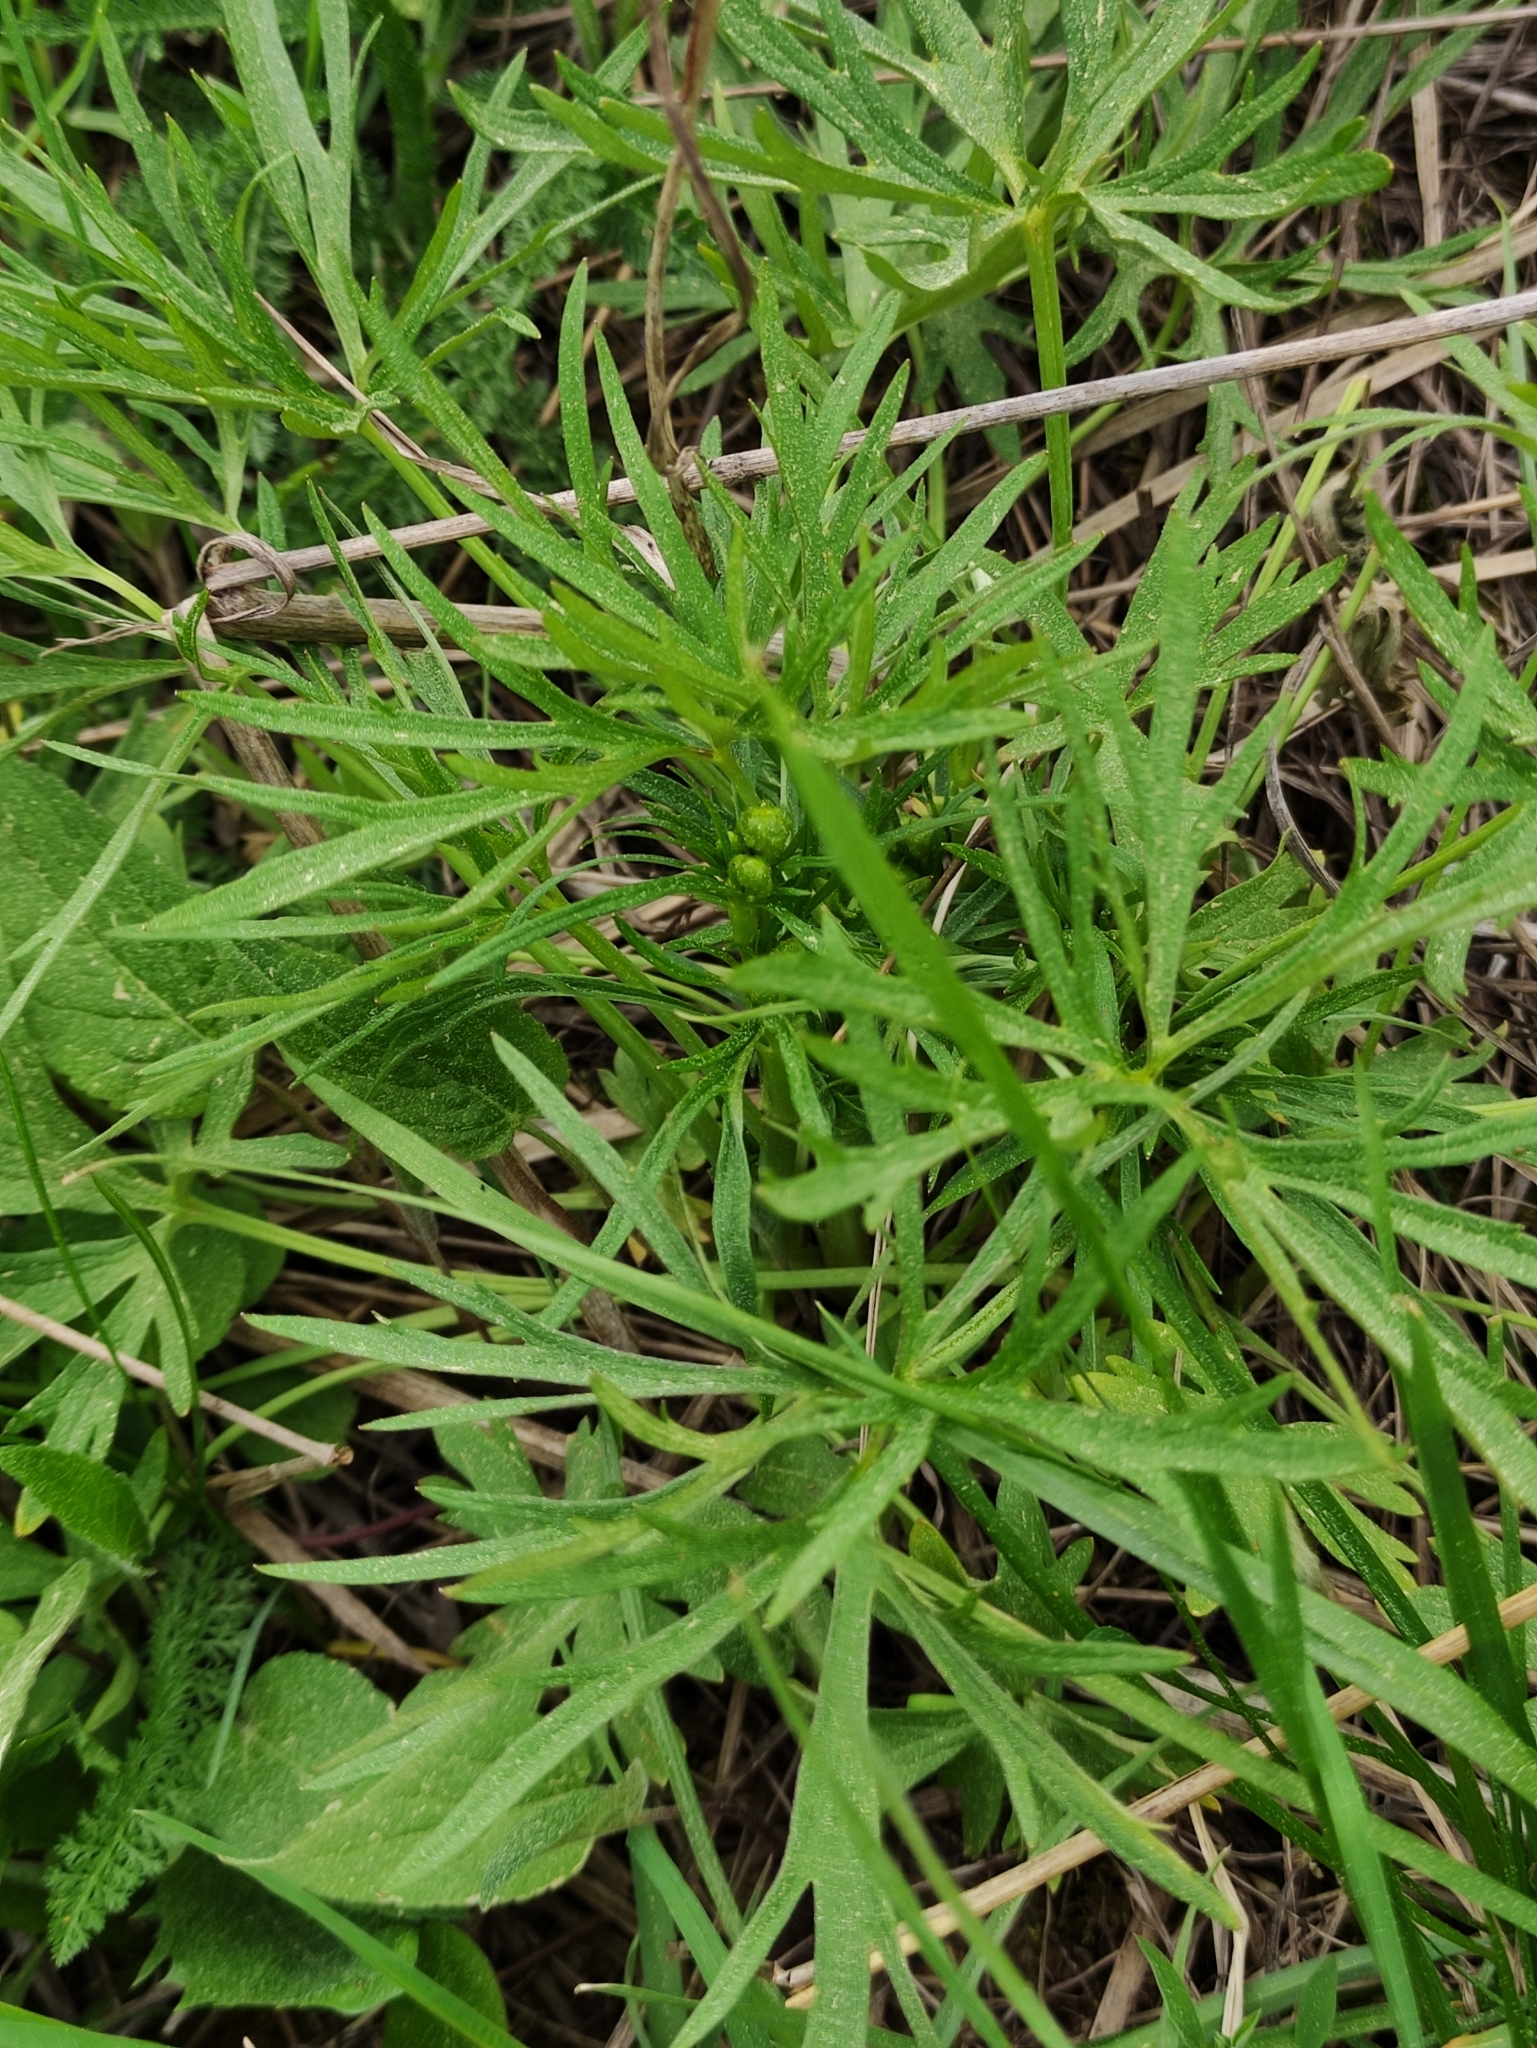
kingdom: Plantae
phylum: Tracheophyta
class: Magnoliopsida
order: Ranunculales
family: Ranunculaceae
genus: Ranunculus
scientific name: Ranunculus acris
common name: Meadow buttercup
